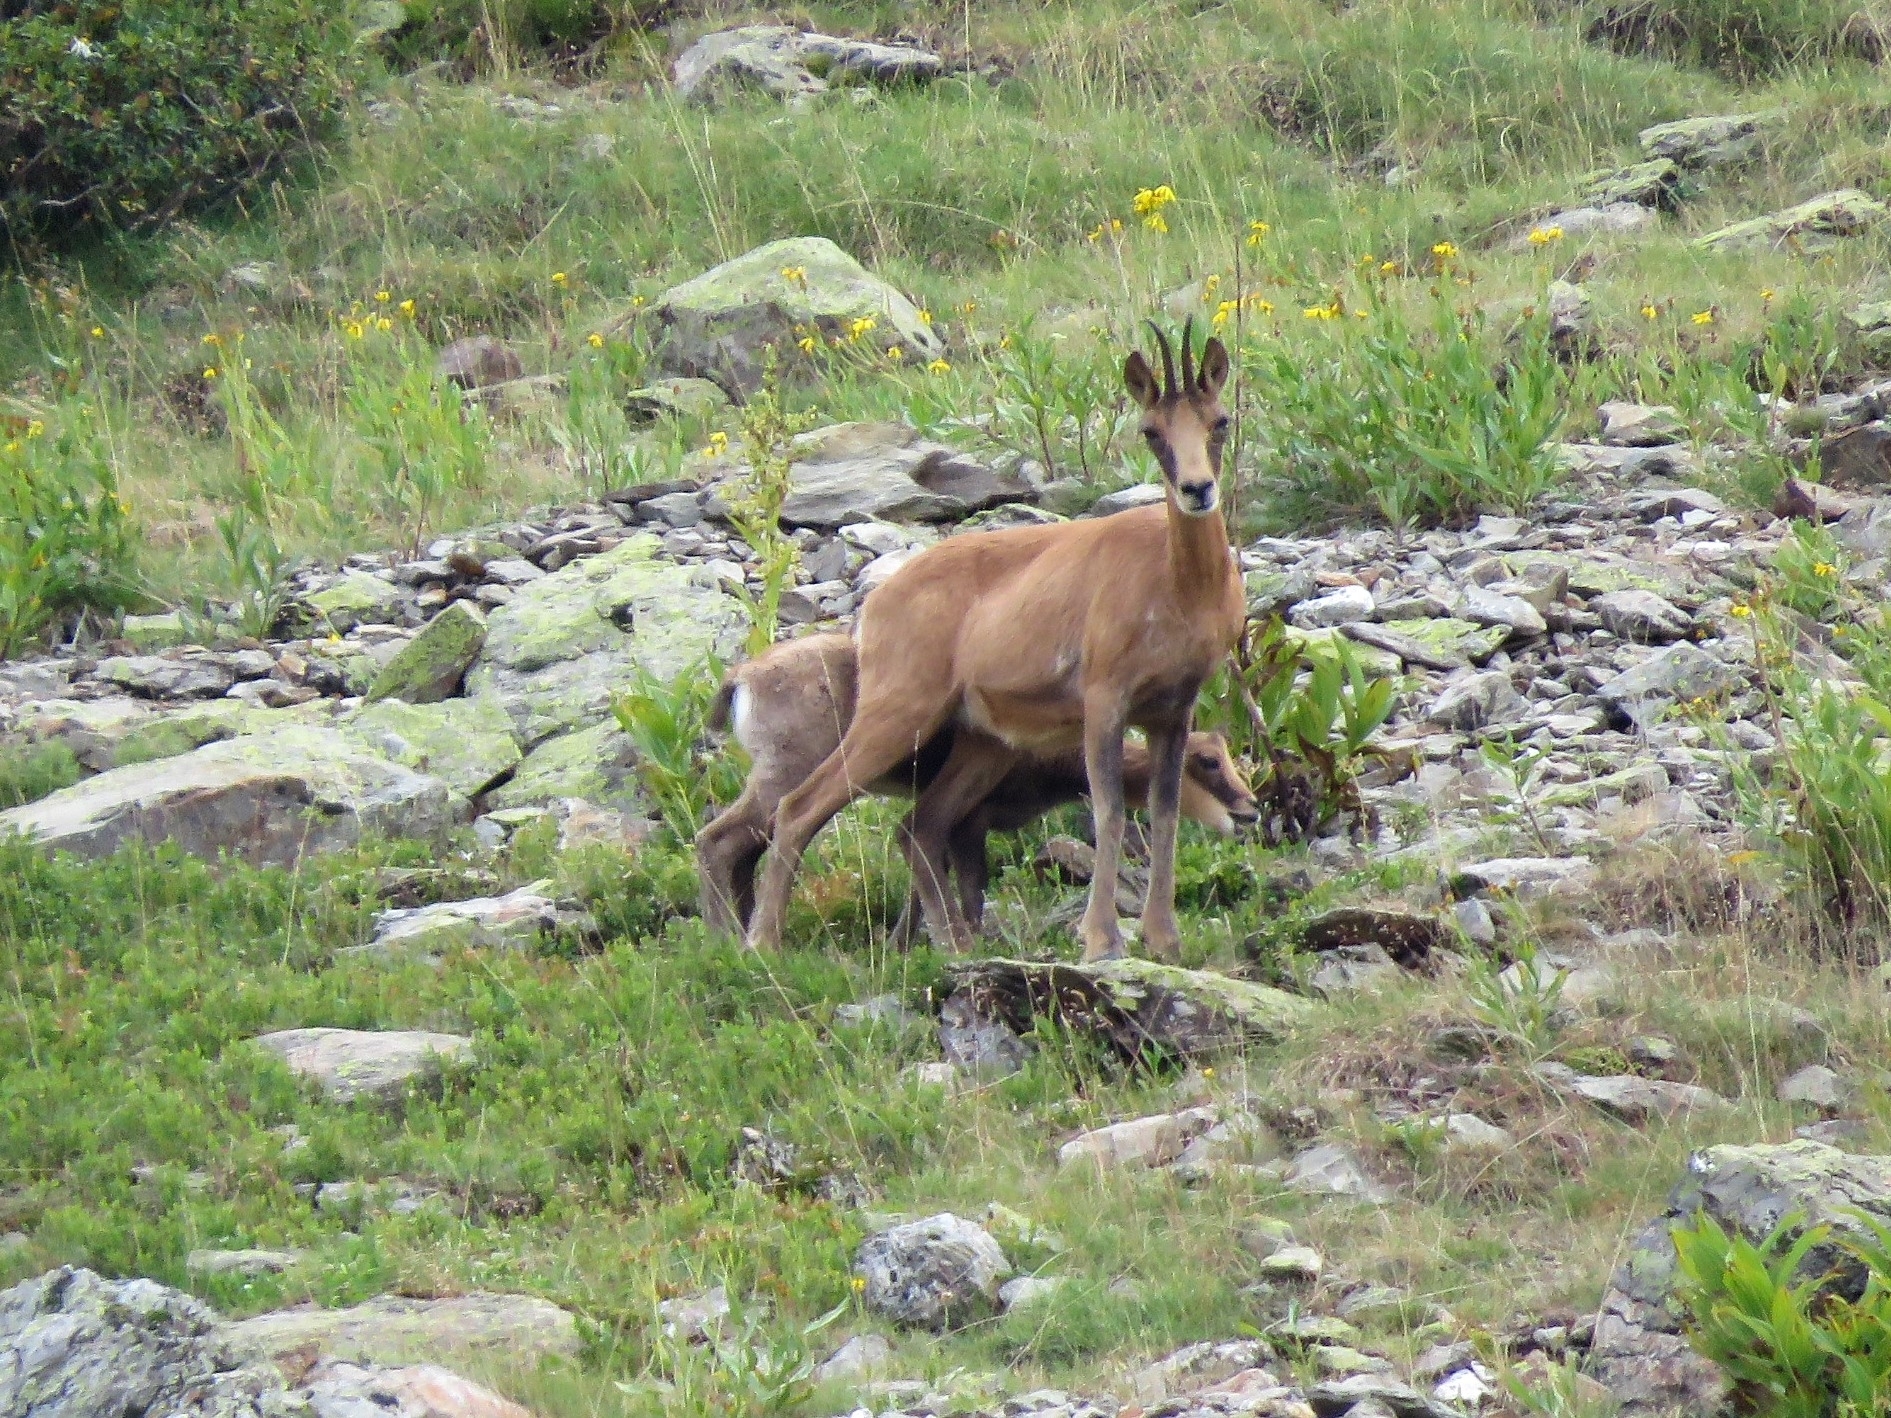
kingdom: Animalia
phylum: Chordata
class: Mammalia
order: Artiodactyla
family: Bovidae
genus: Rupicapra
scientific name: Rupicapra pyrenaica
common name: Pyrenean chamois
